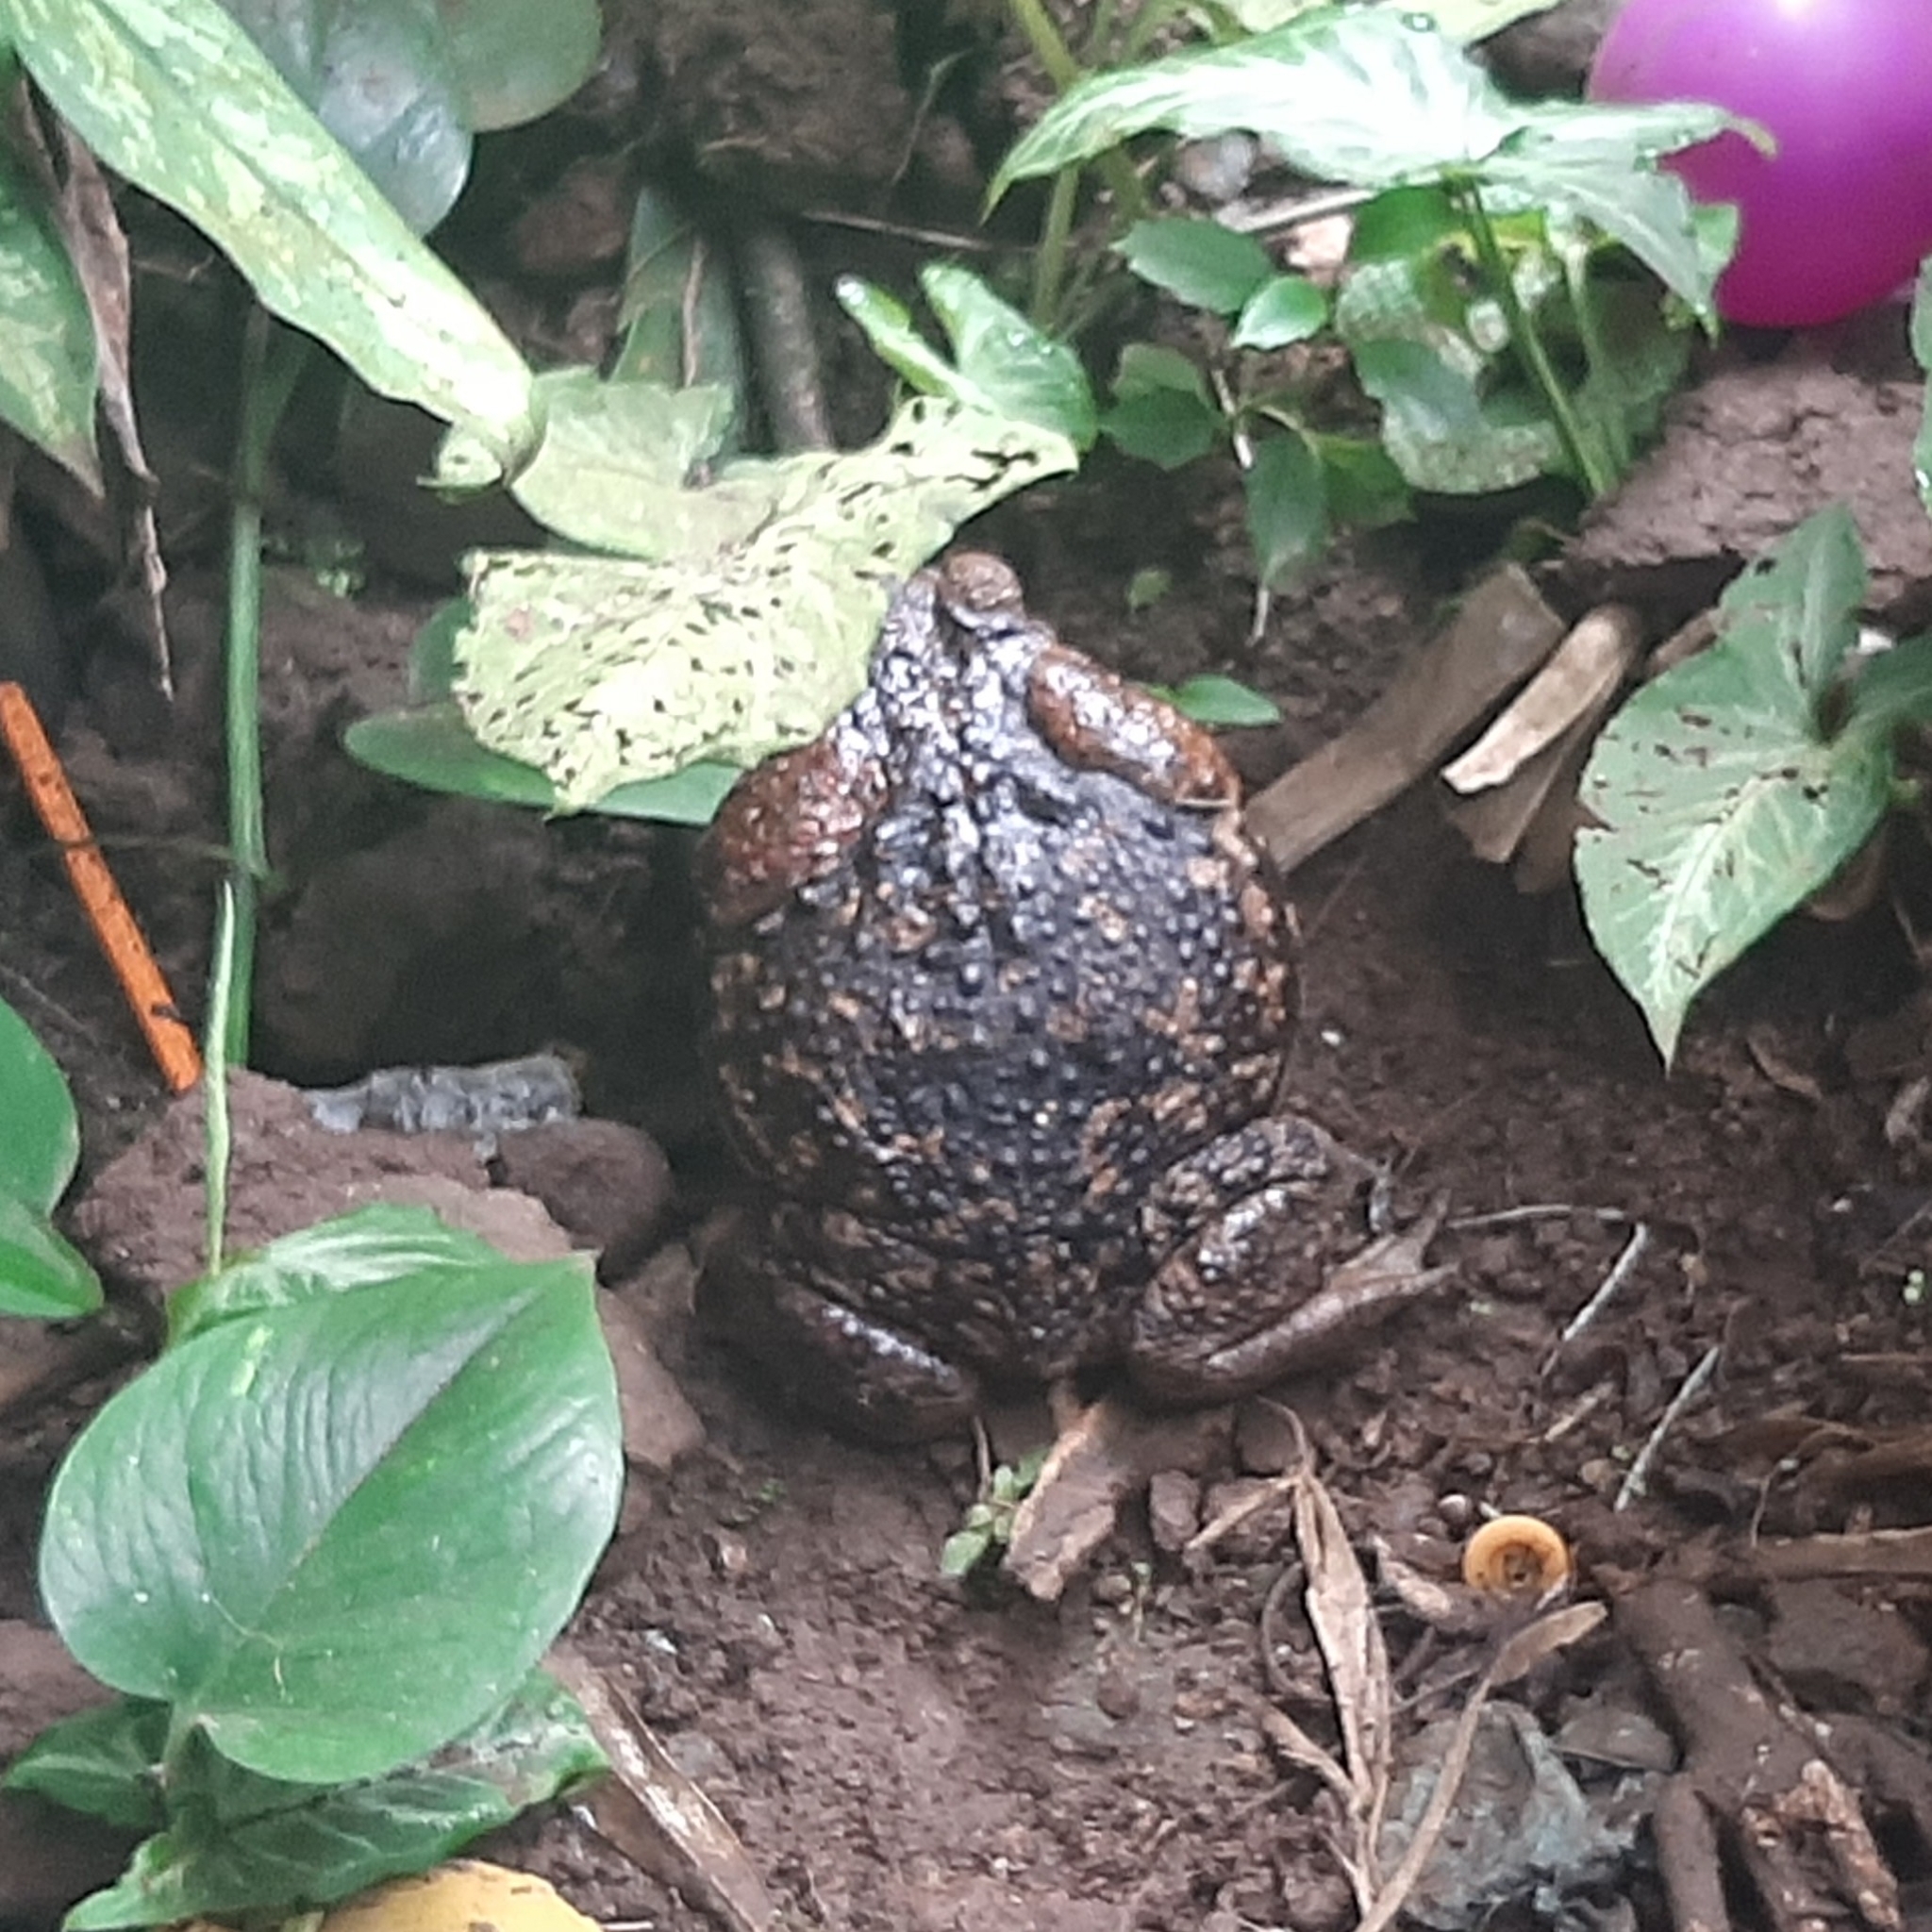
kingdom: Animalia
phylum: Chordata
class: Amphibia
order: Anura
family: Bufonidae
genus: Rhinella
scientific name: Rhinella horribilis
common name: Mesoamerican cane toad
